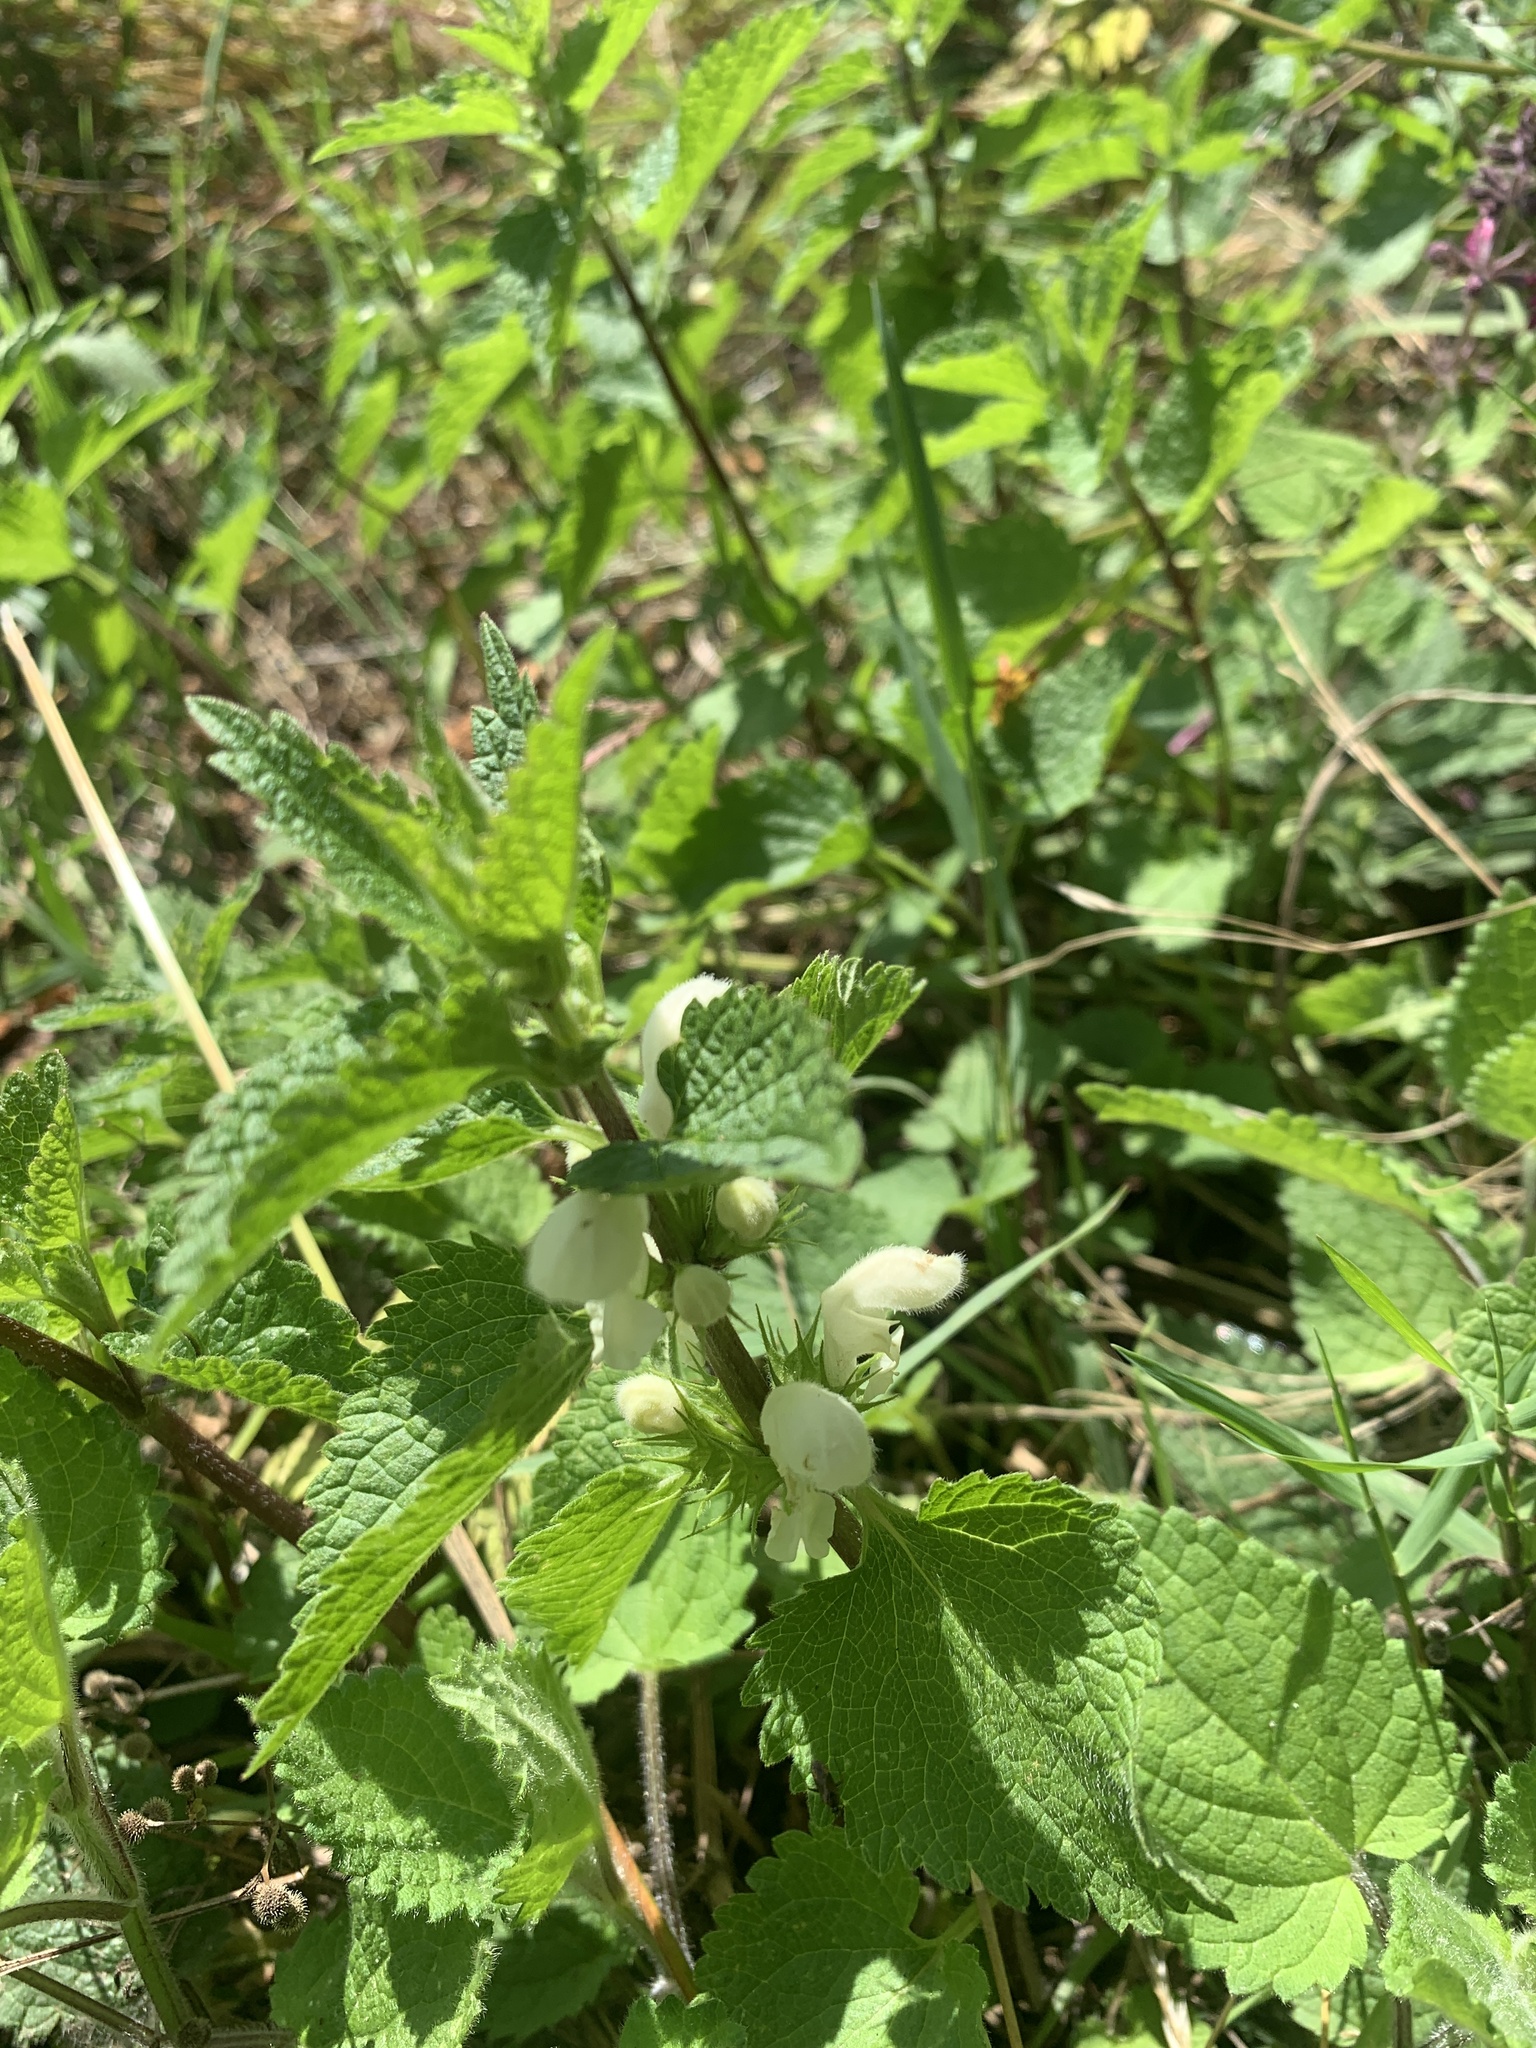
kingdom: Plantae
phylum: Tracheophyta
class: Magnoliopsida
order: Lamiales
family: Lamiaceae
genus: Lamium
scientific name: Lamium album
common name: White dead-nettle
